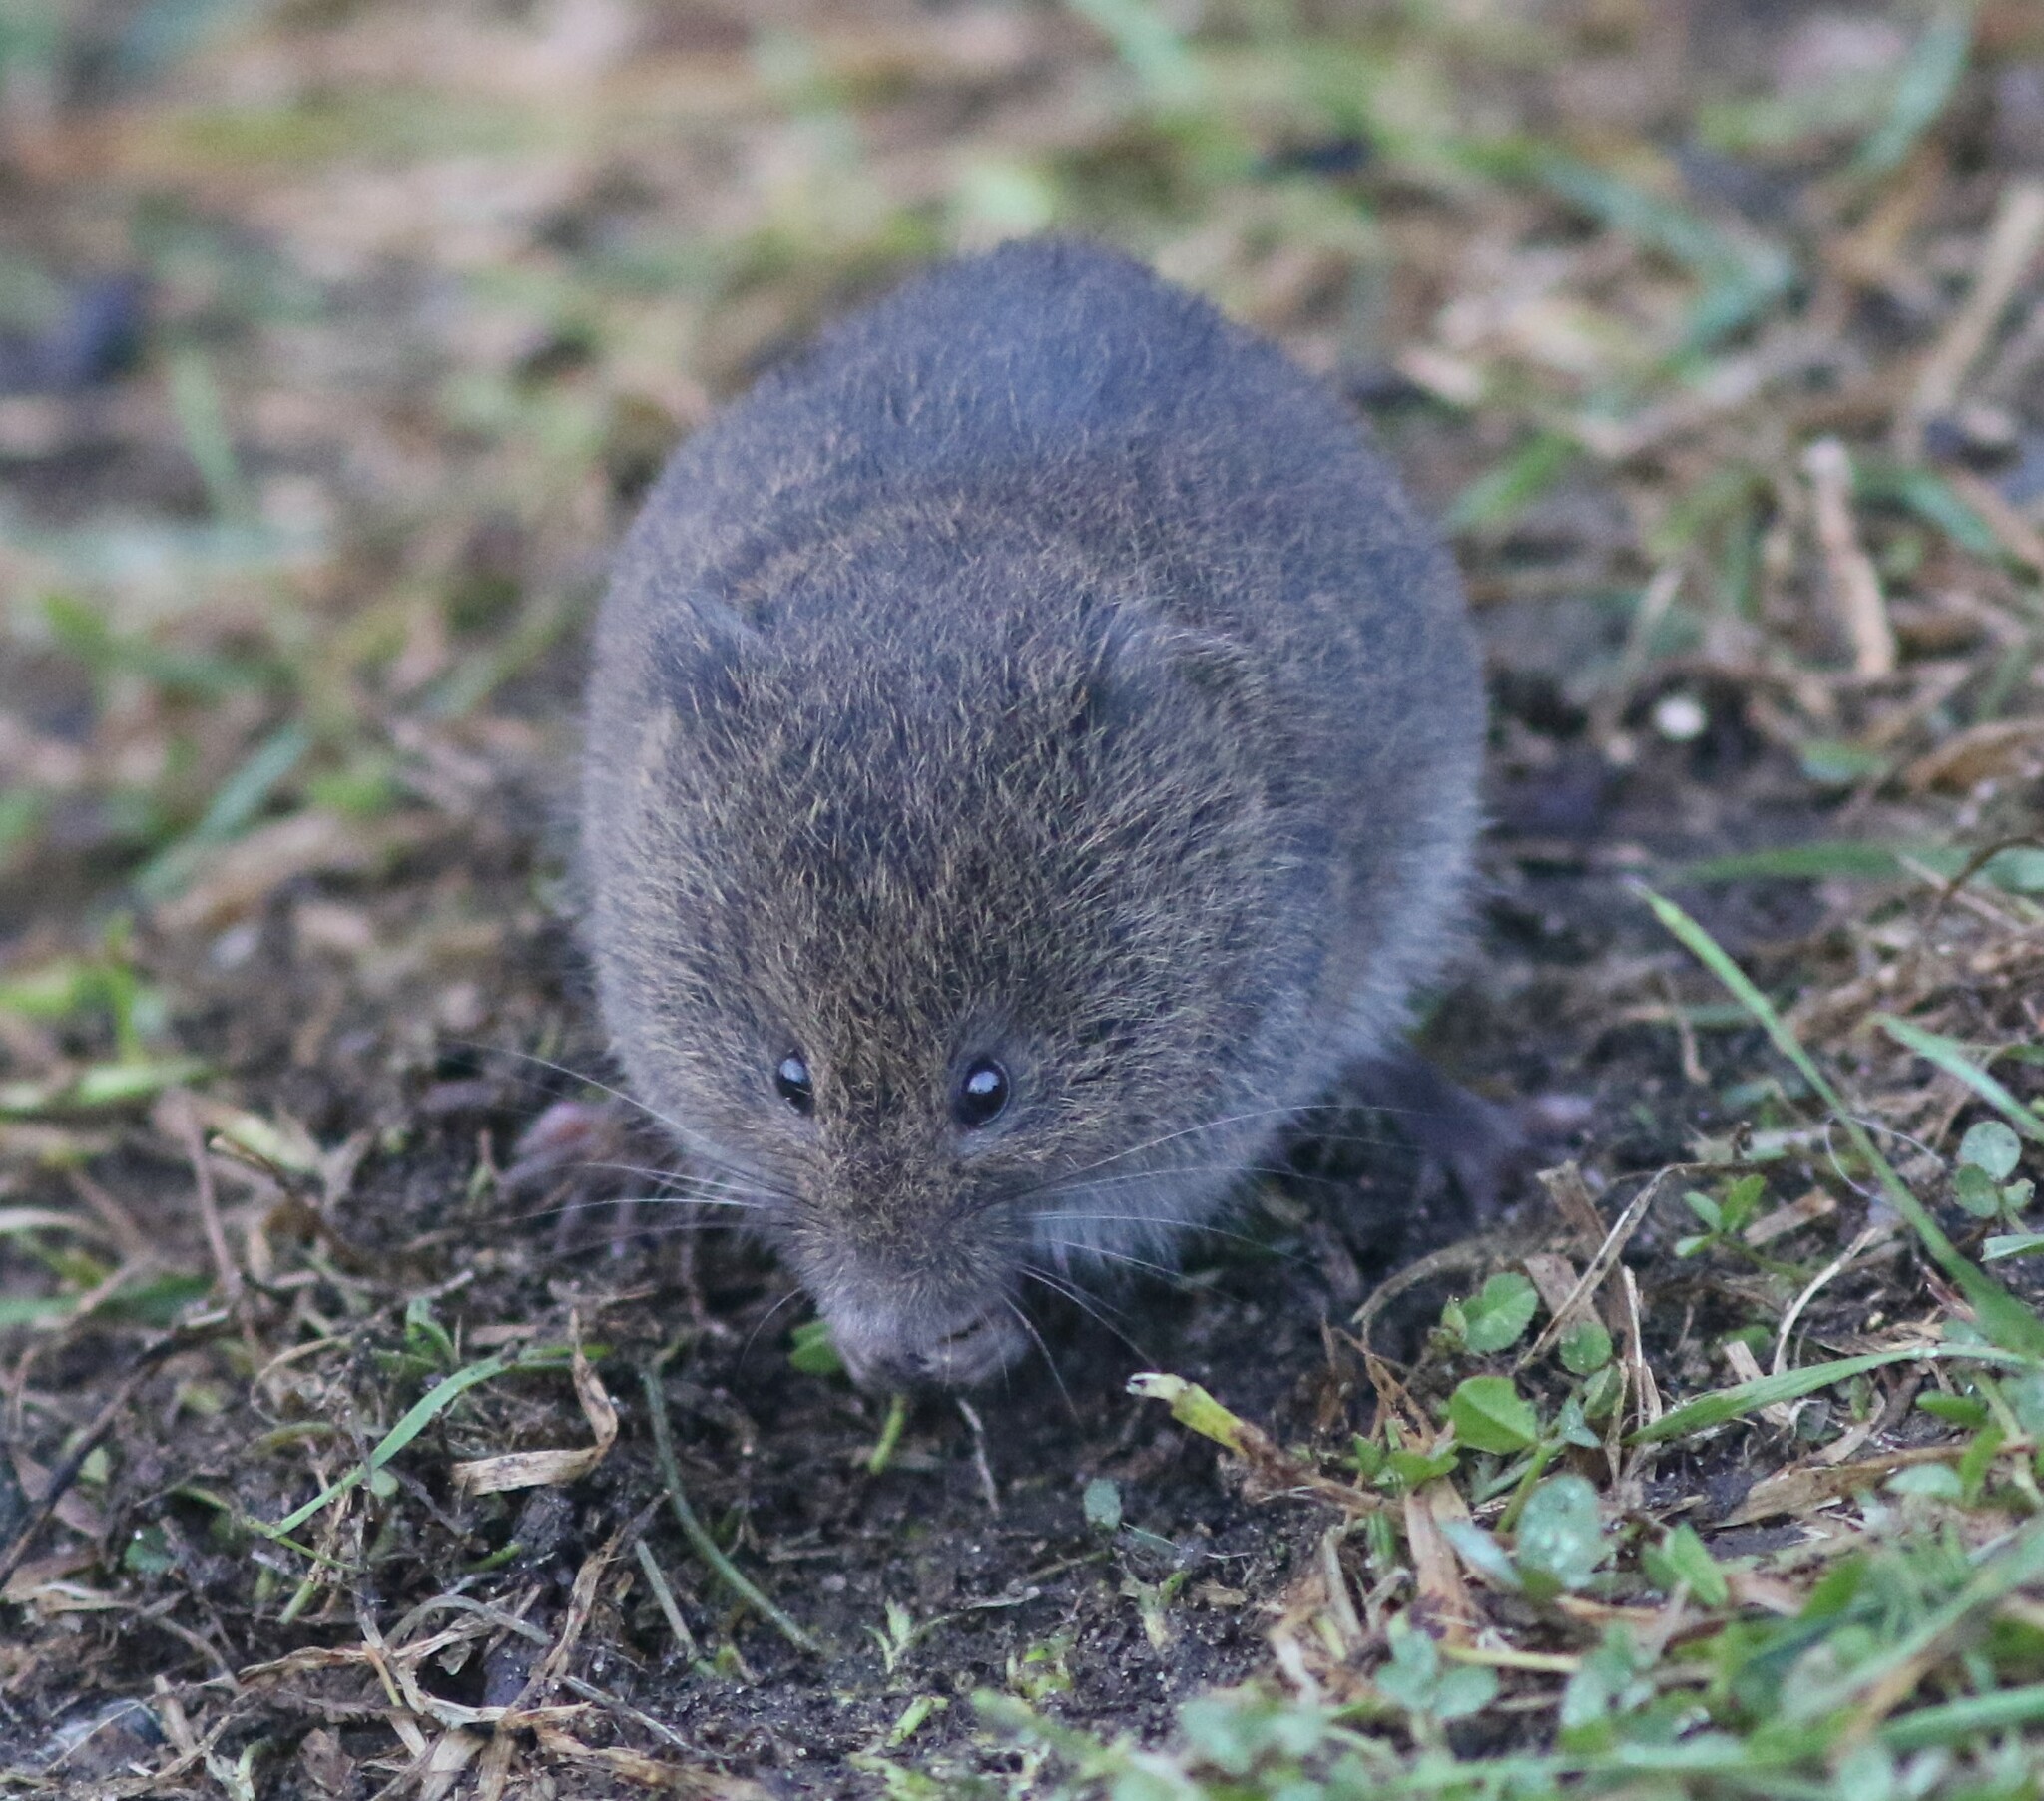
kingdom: Animalia
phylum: Chordata
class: Mammalia
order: Rodentia
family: Cricetidae
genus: Microtus
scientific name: Microtus pennsylvanicus
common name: Meadow vole
